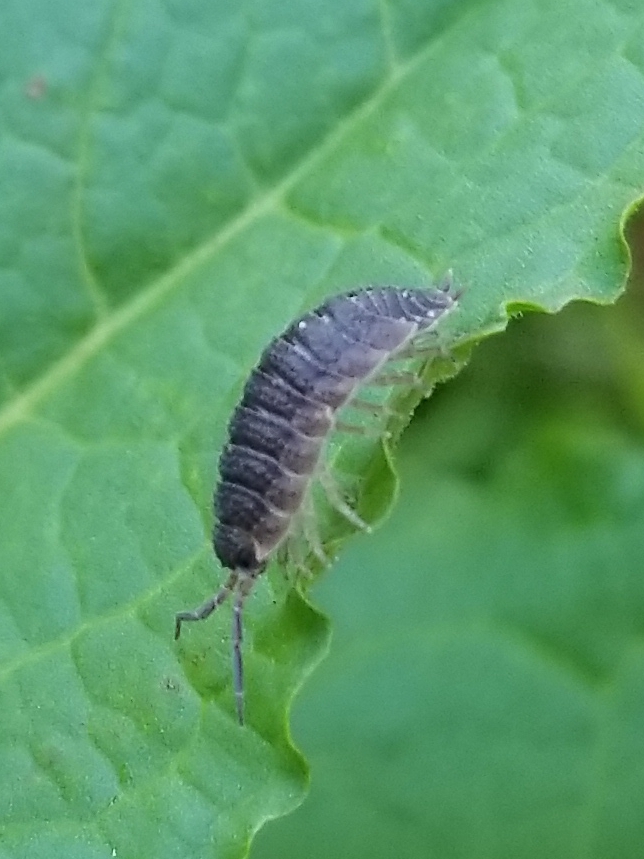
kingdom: Animalia
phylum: Arthropoda
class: Malacostraca
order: Isopoda
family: Porcellionidae
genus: Porcellio
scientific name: Porcellio scaber
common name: Common rough woodlouse
